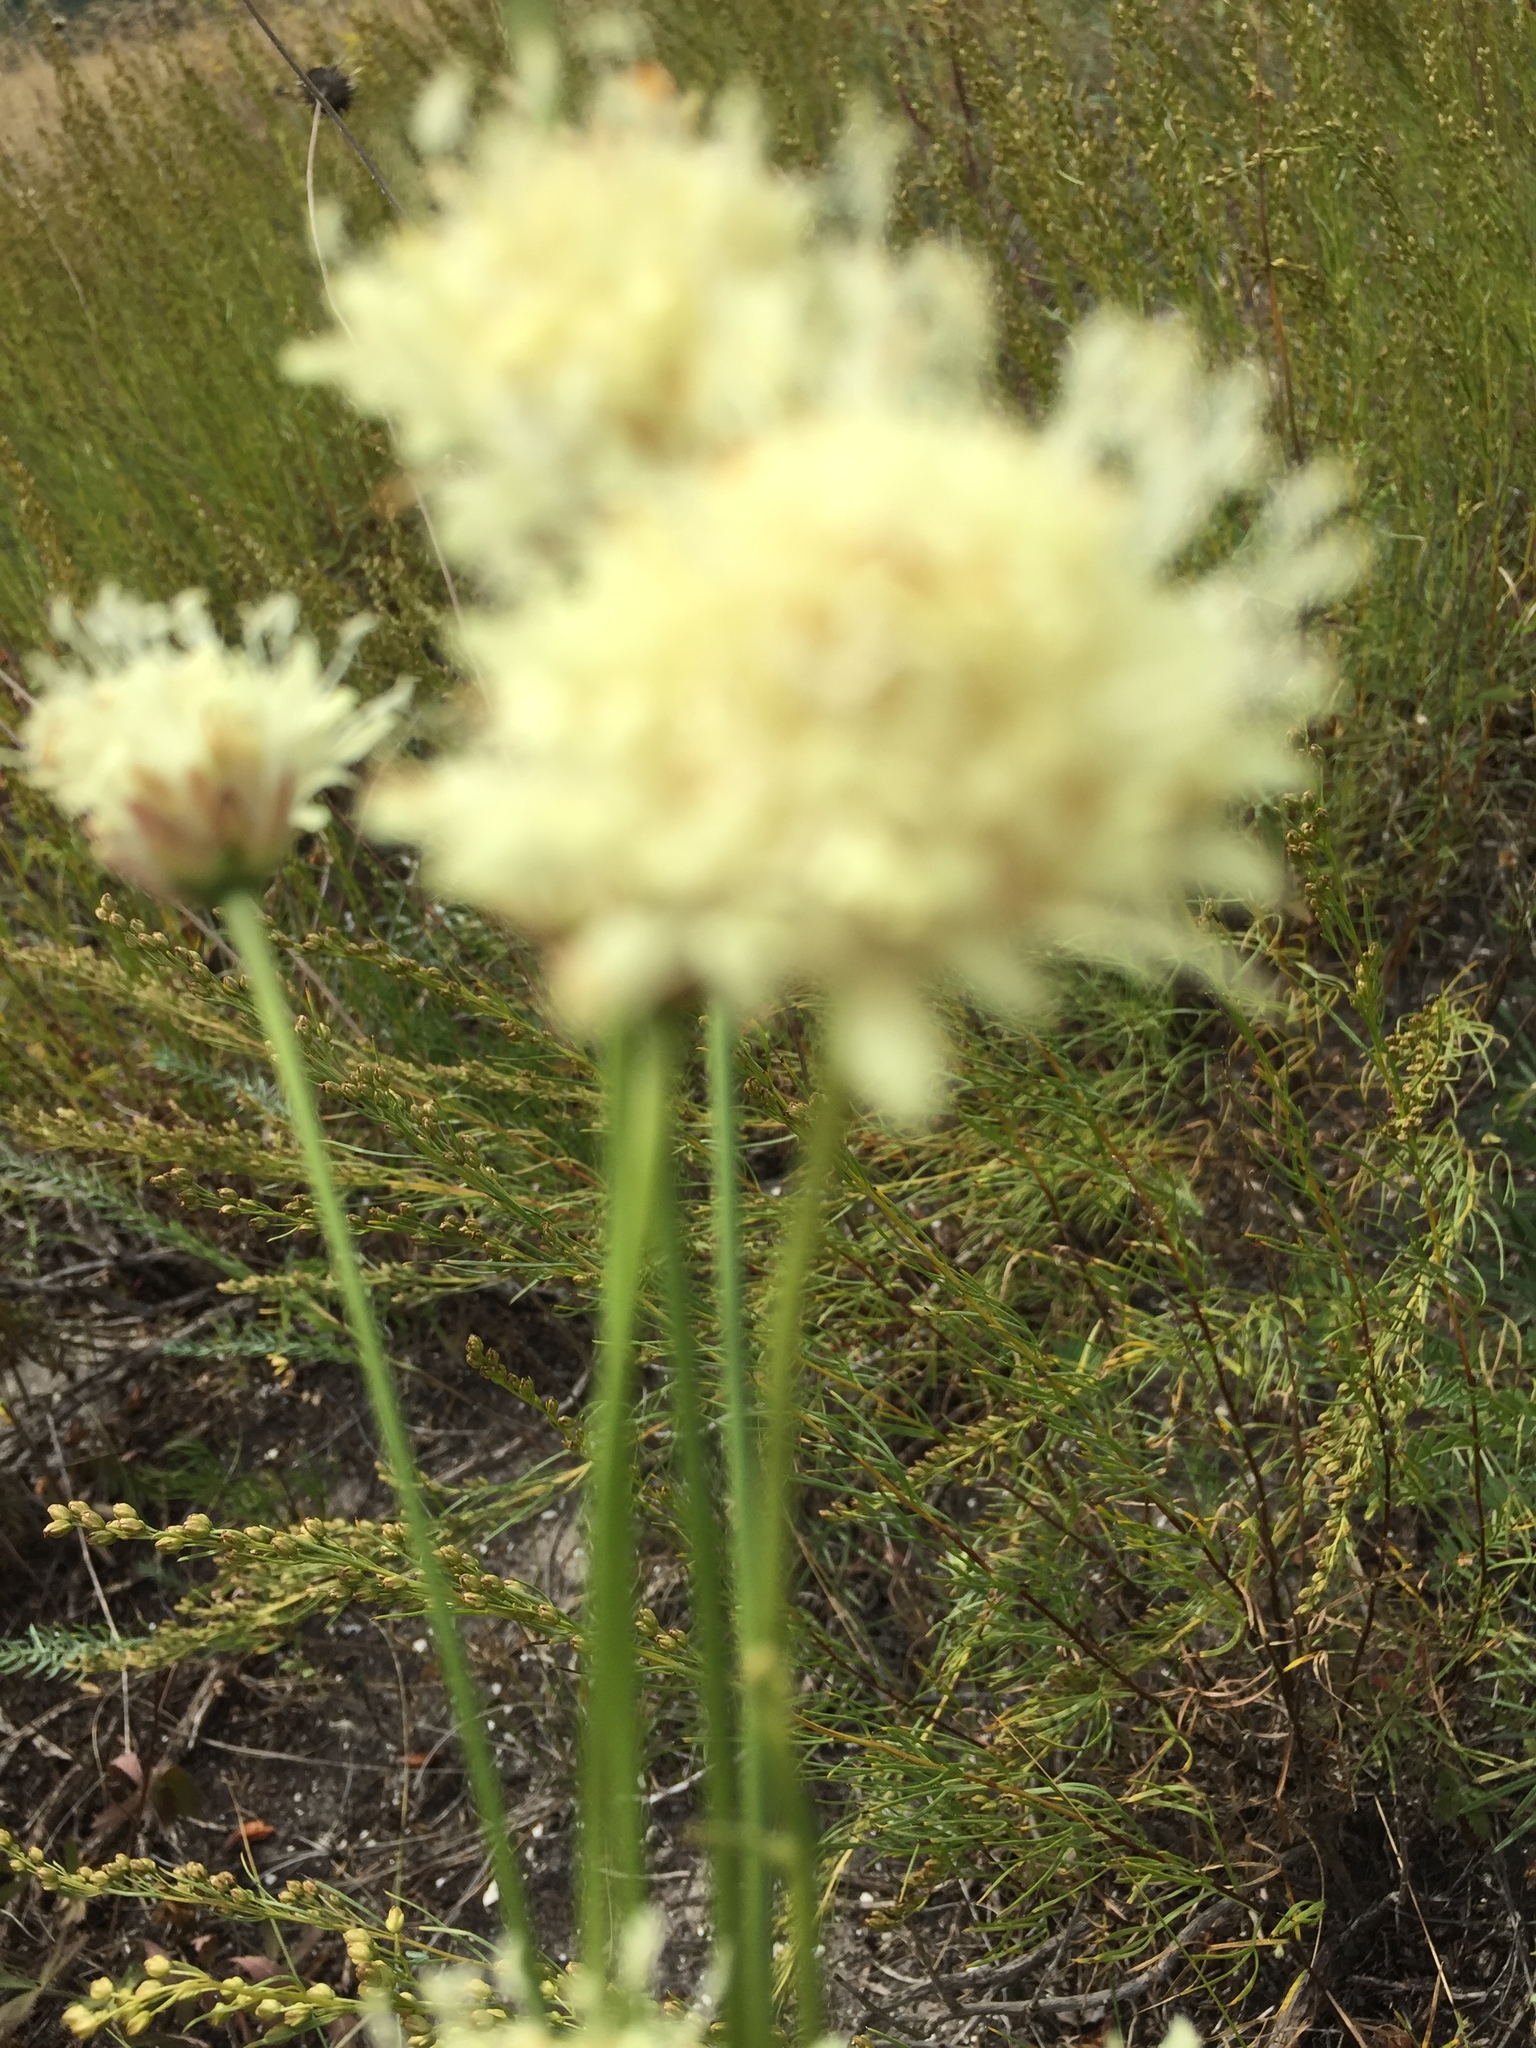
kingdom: Plantae
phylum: Tracheophyta
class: Magnoliopsida
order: Dipsacales
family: Caprifoliaceae
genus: Cephalaria
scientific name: Cephalaria uralensis
